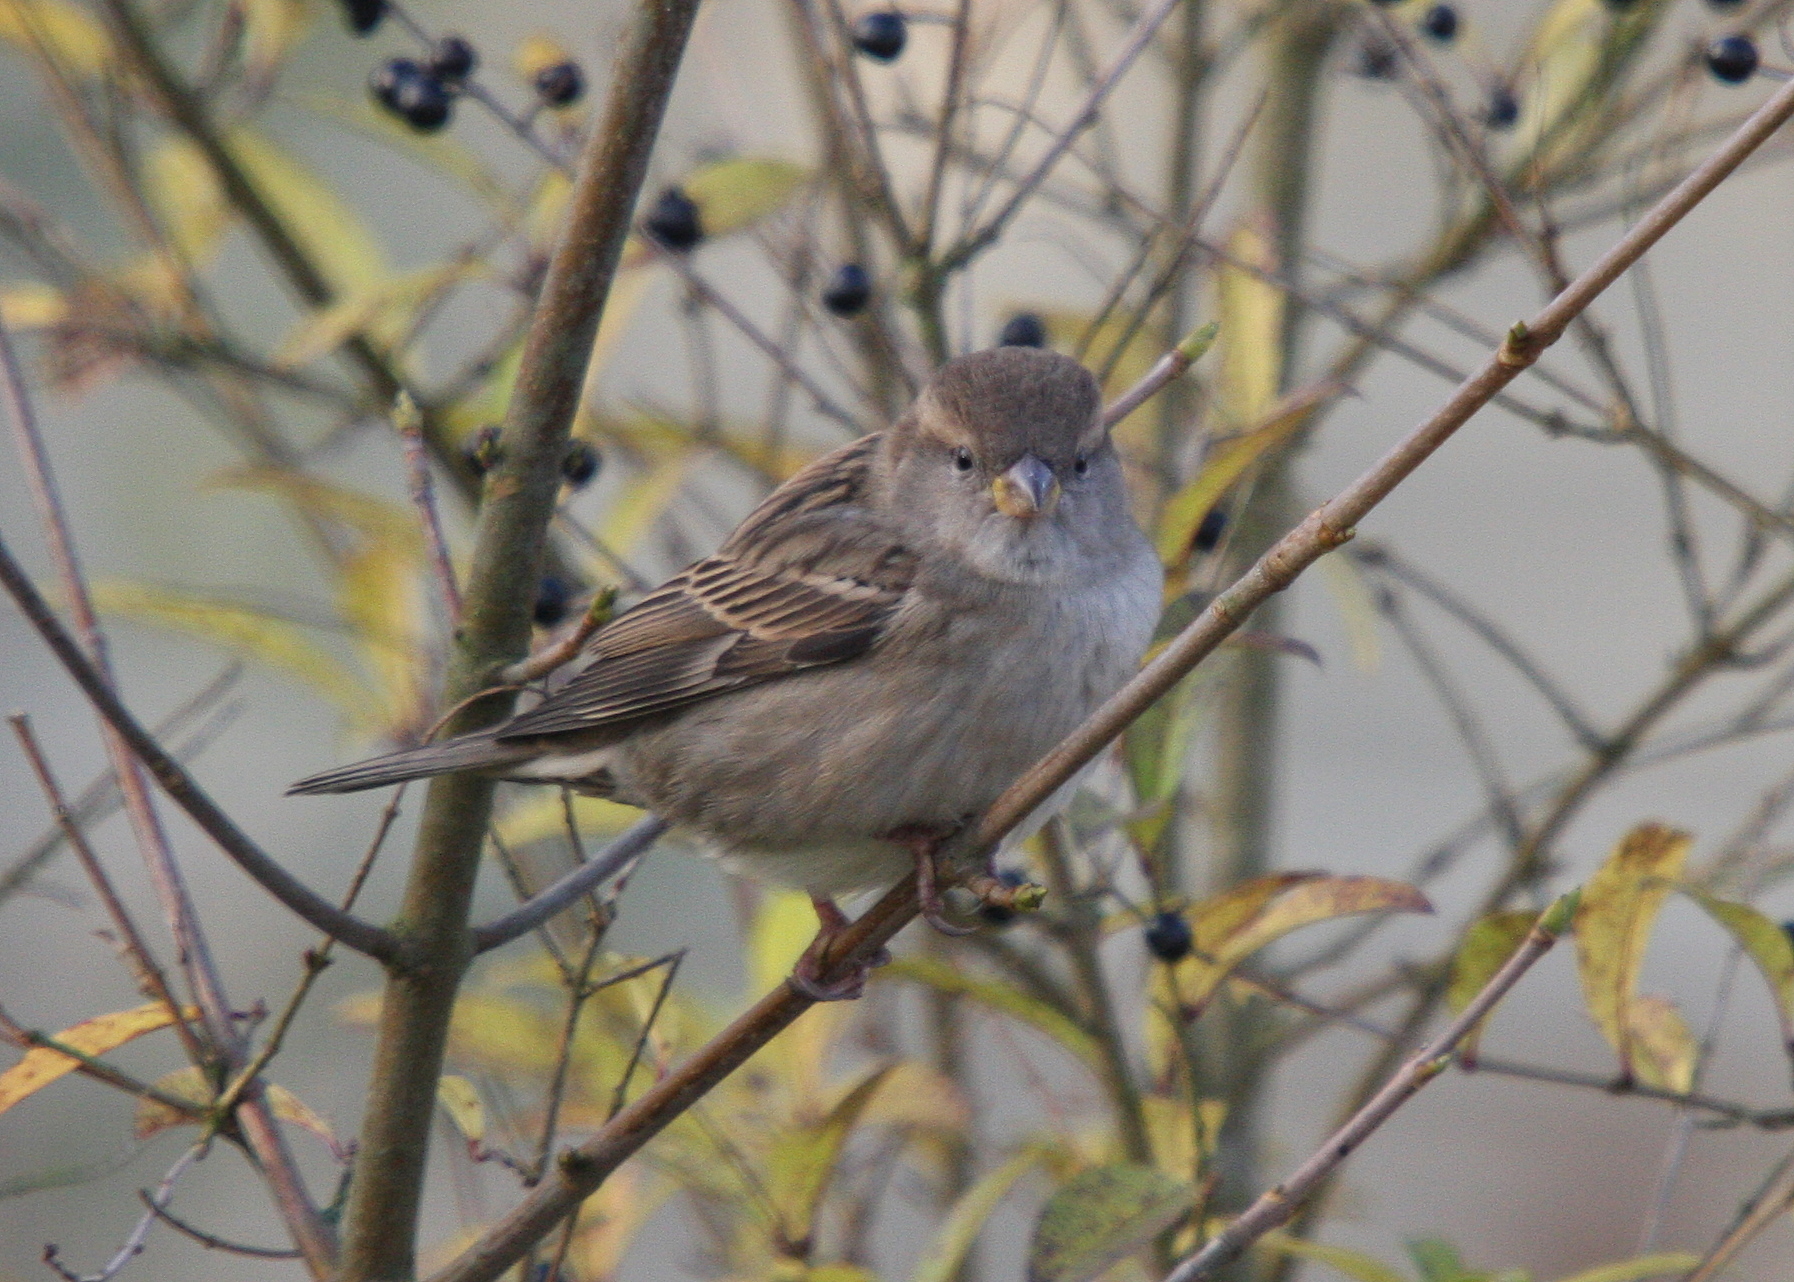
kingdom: Animalia
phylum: Chordata
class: Aves
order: Passeriformes
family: Passeridae
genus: Passer
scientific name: Passer domesticus
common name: House sparrow
